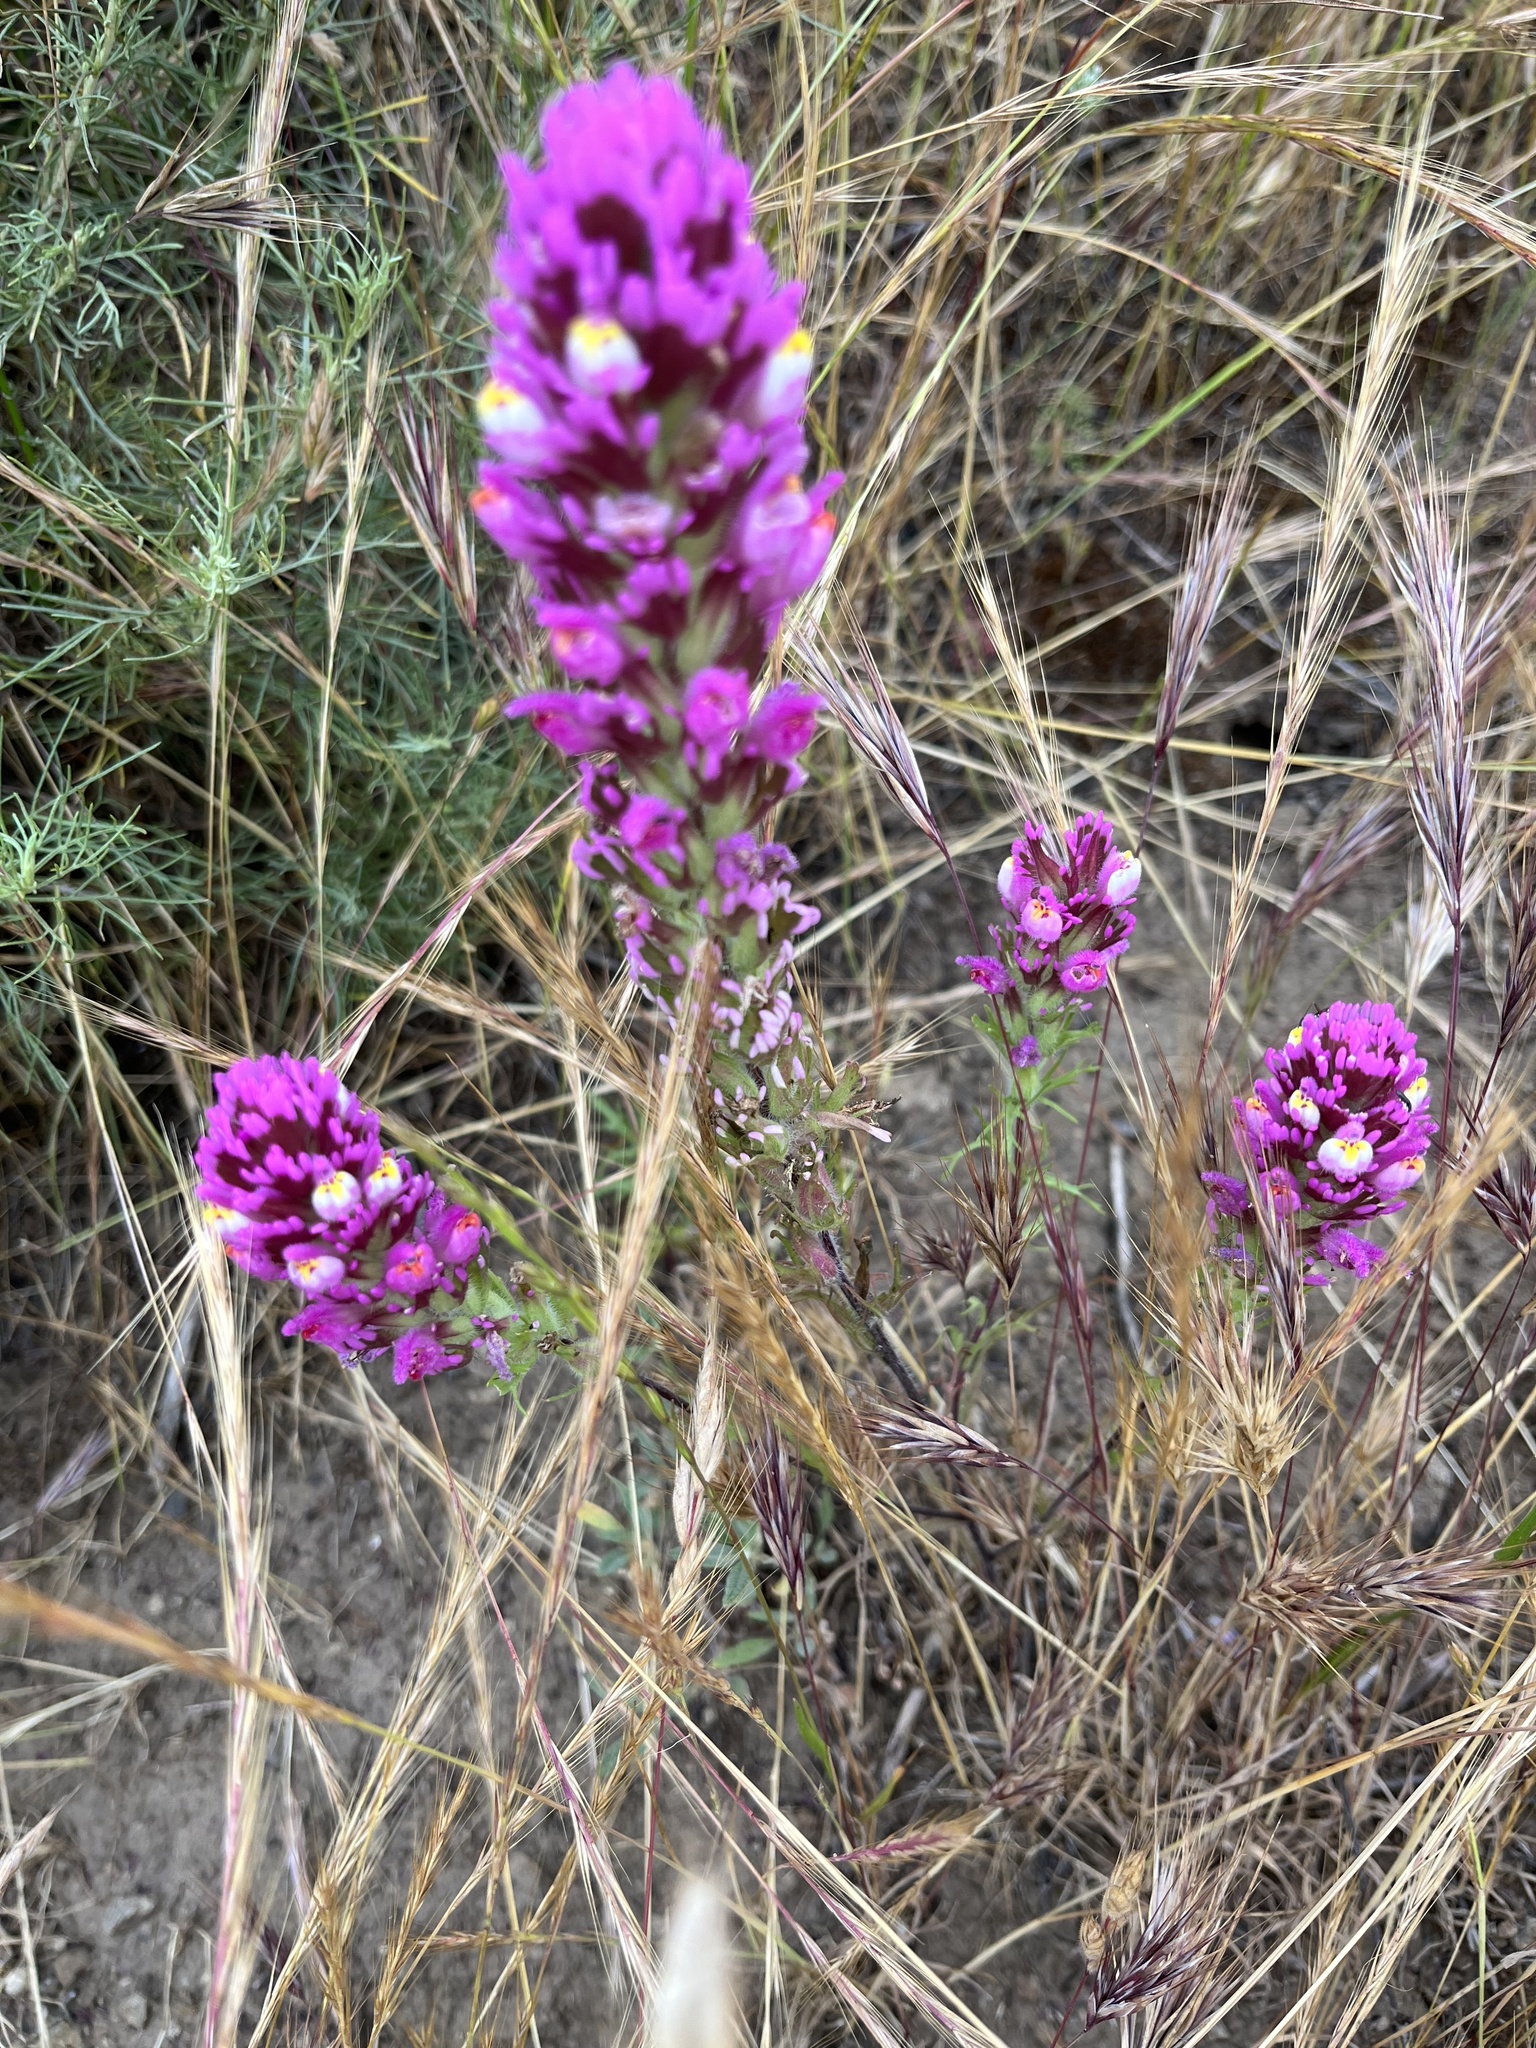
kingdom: Plantae
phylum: Tracheophyta
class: Magnoliopsida
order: Lamiales
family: Orobanchaceae
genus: Castilleja
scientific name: Castilleja exserta
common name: Purple owl-clover
